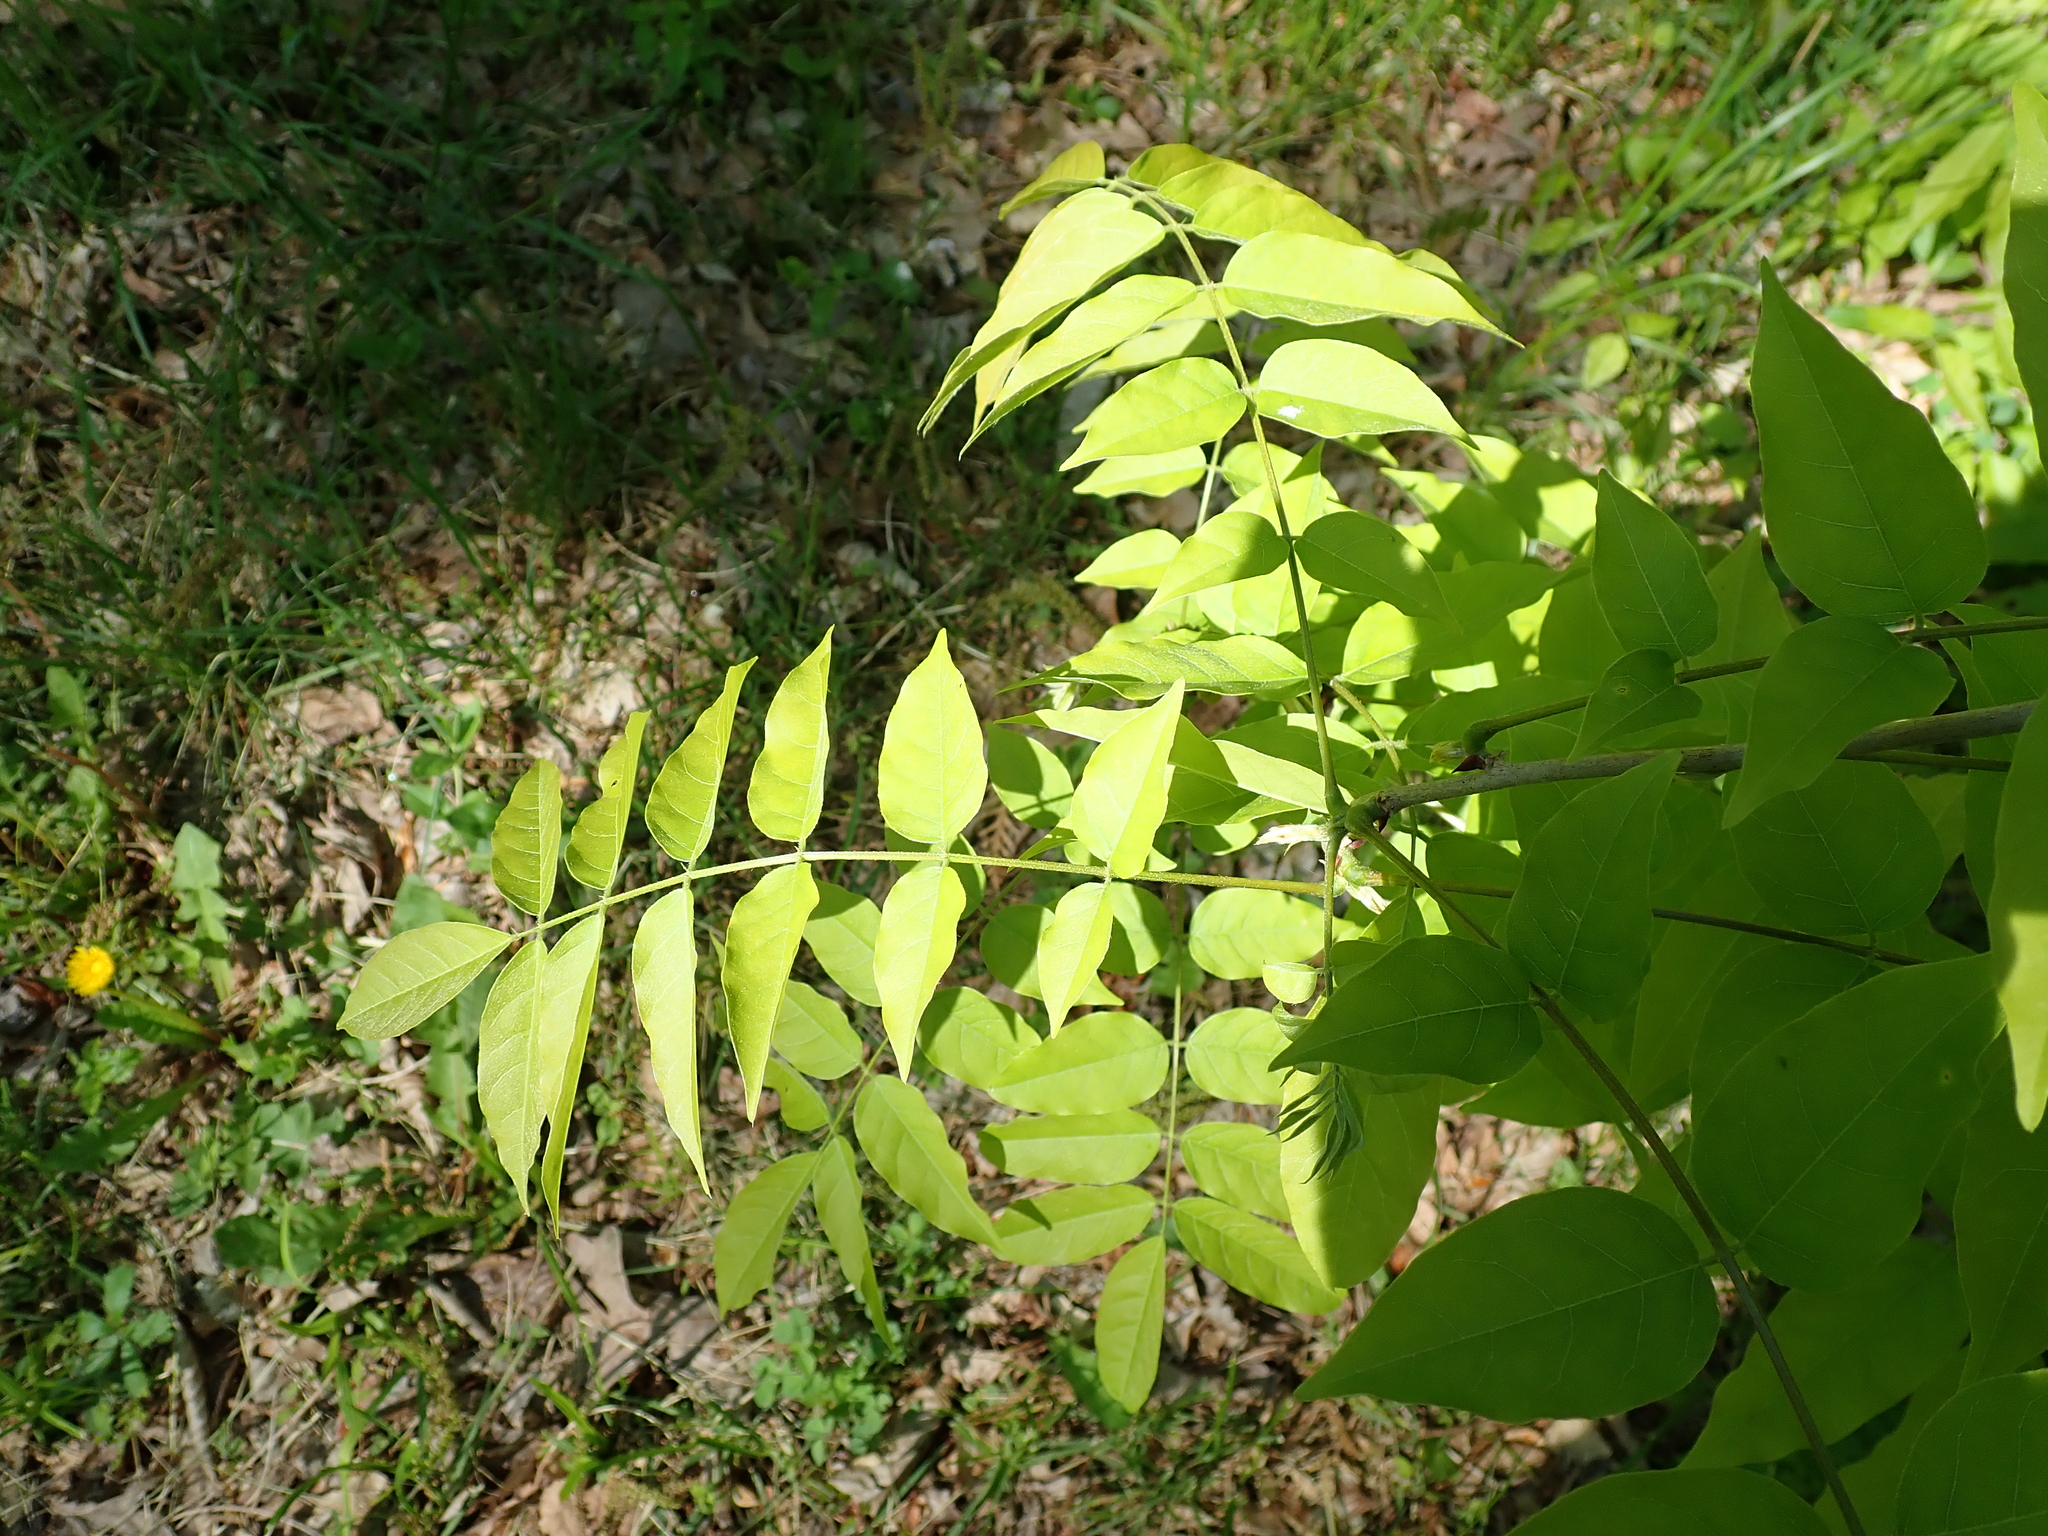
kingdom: Plantae
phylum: Tracheophyta
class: Magnoliopsida
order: Fabales
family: Fabaceae
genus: Wisteria
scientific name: Wisteria sinensis
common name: Chinese wisteria
